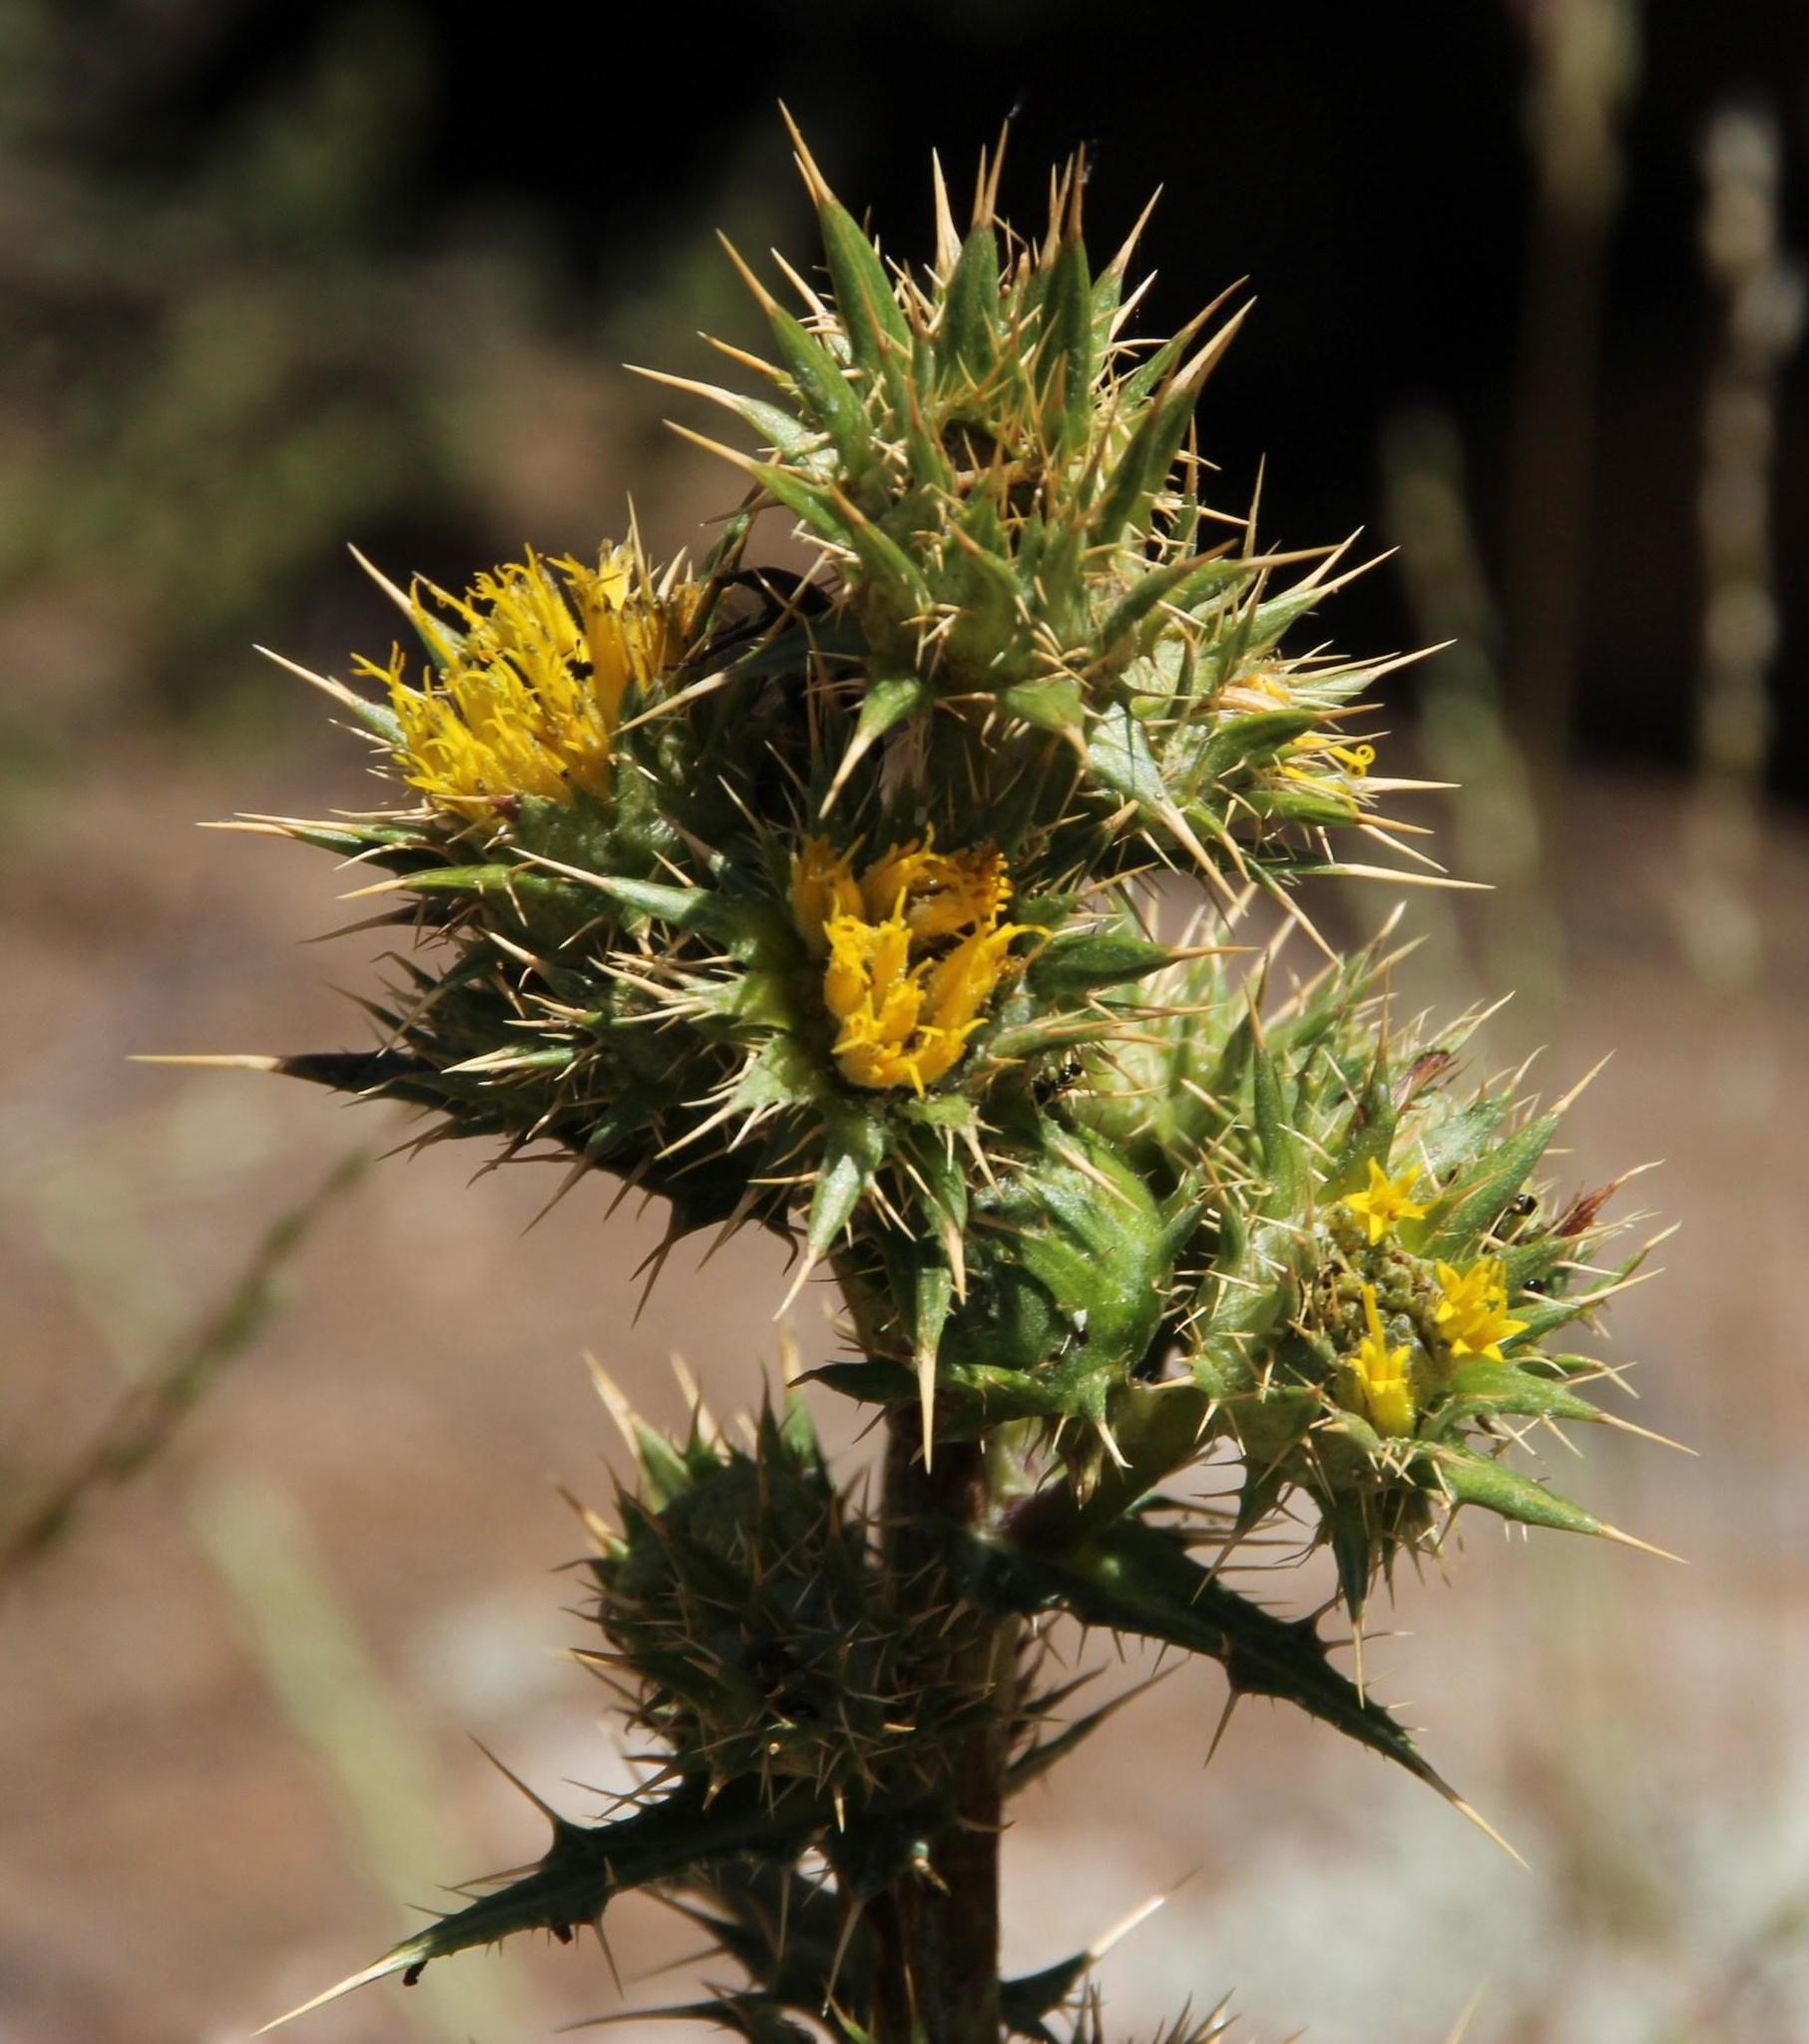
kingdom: Plantae
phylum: Tracheophyta
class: Magnoliopsida
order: Asterales
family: Asteraceae
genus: Berkheya
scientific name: Berkheya carlinifolia
